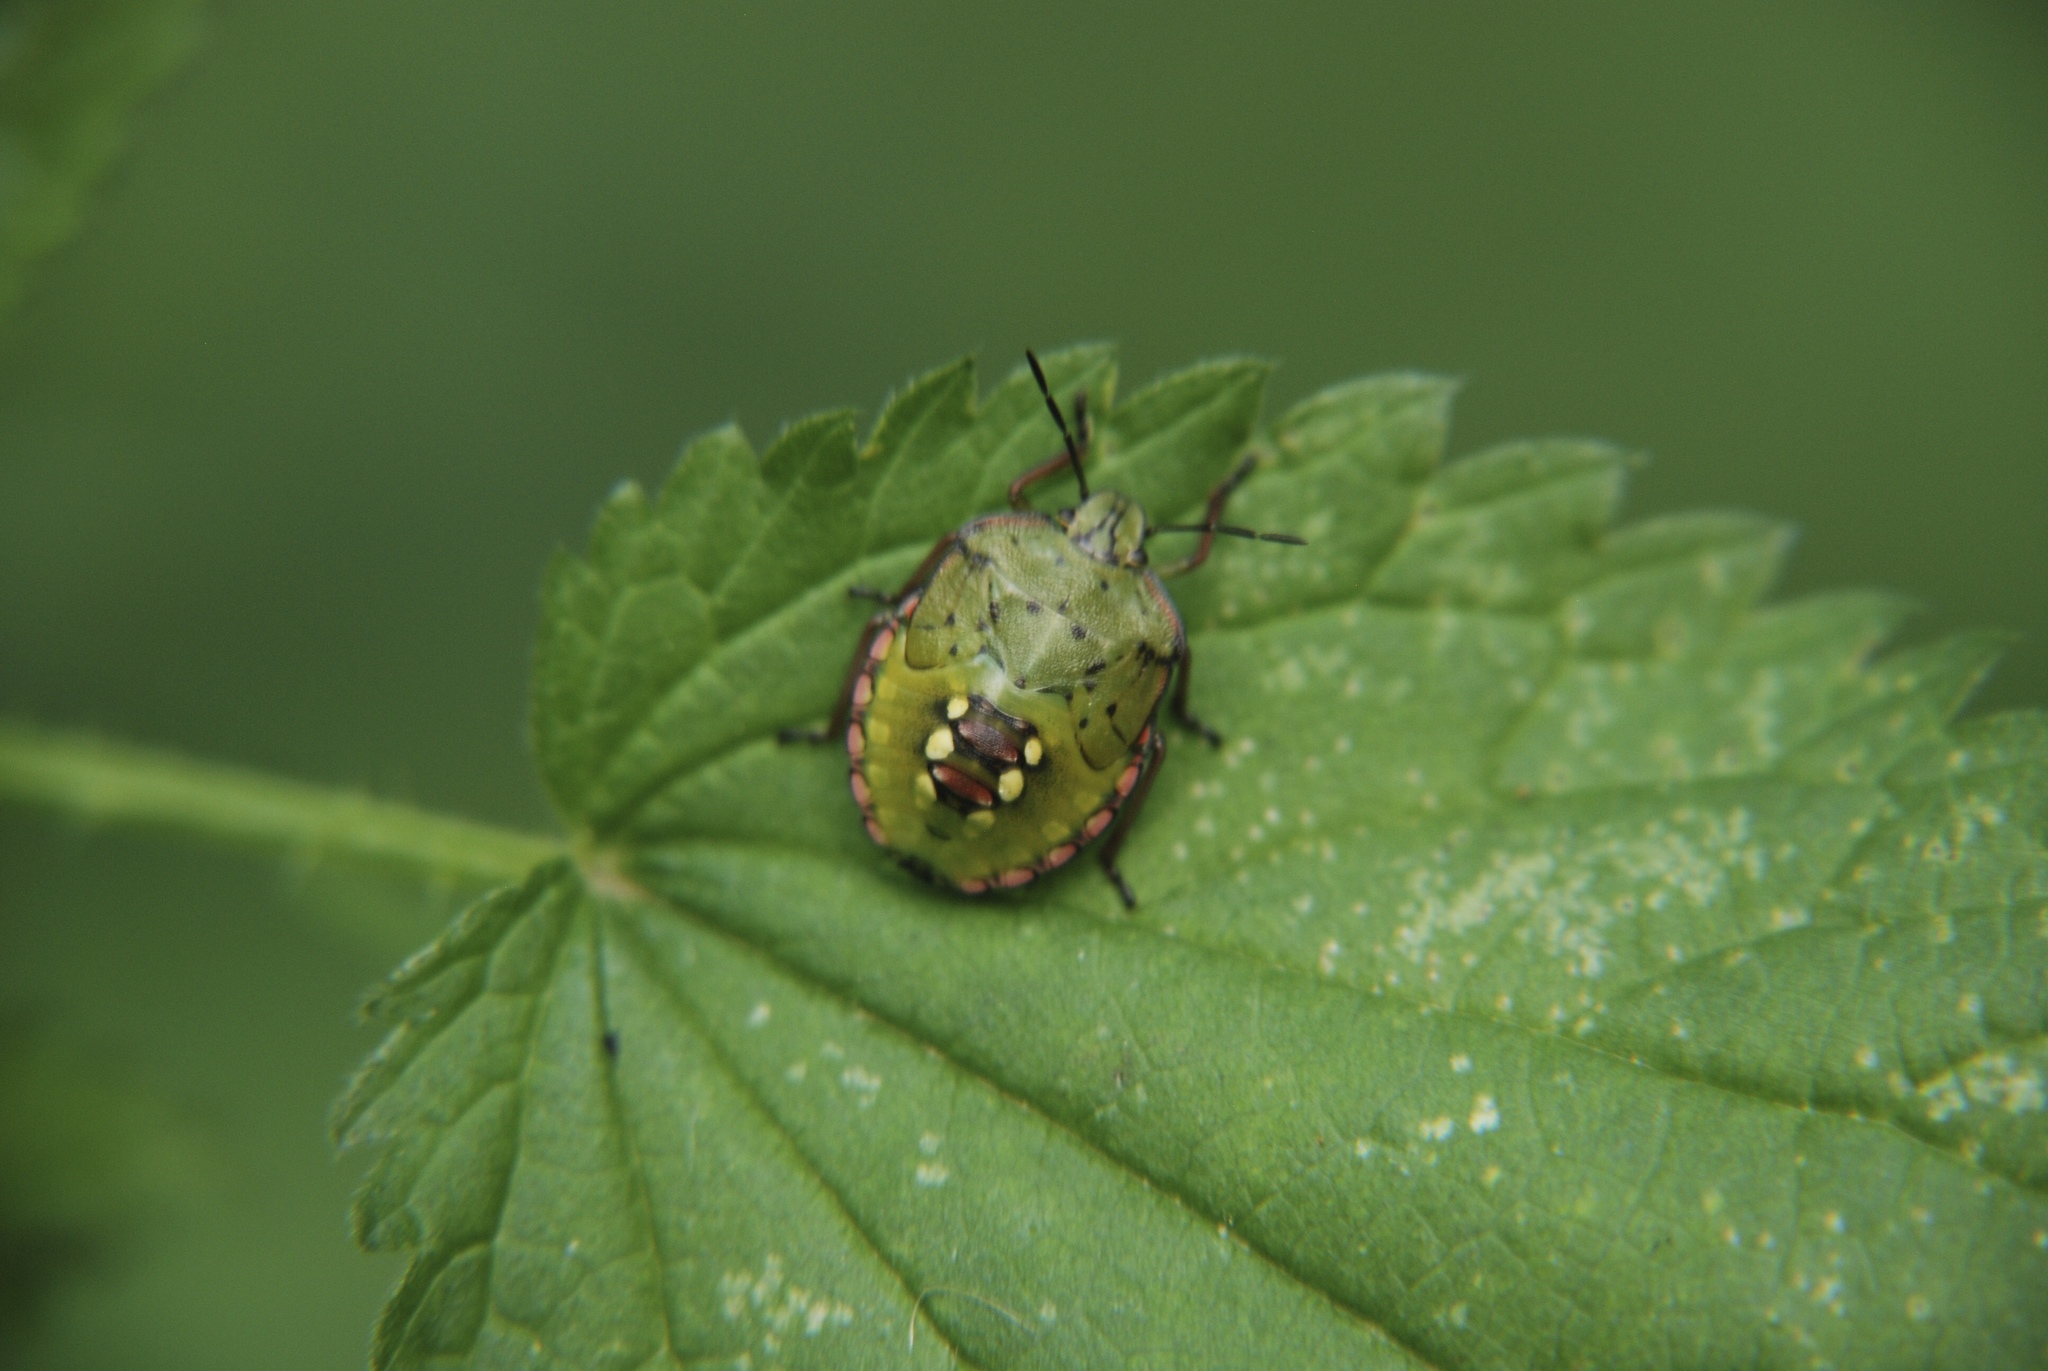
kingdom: Animalia
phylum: Arthropoda
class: Insecta
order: Hemiptera
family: Pentatomidae
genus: Nezara
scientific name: Nezara viridula
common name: Southern green stink bug
